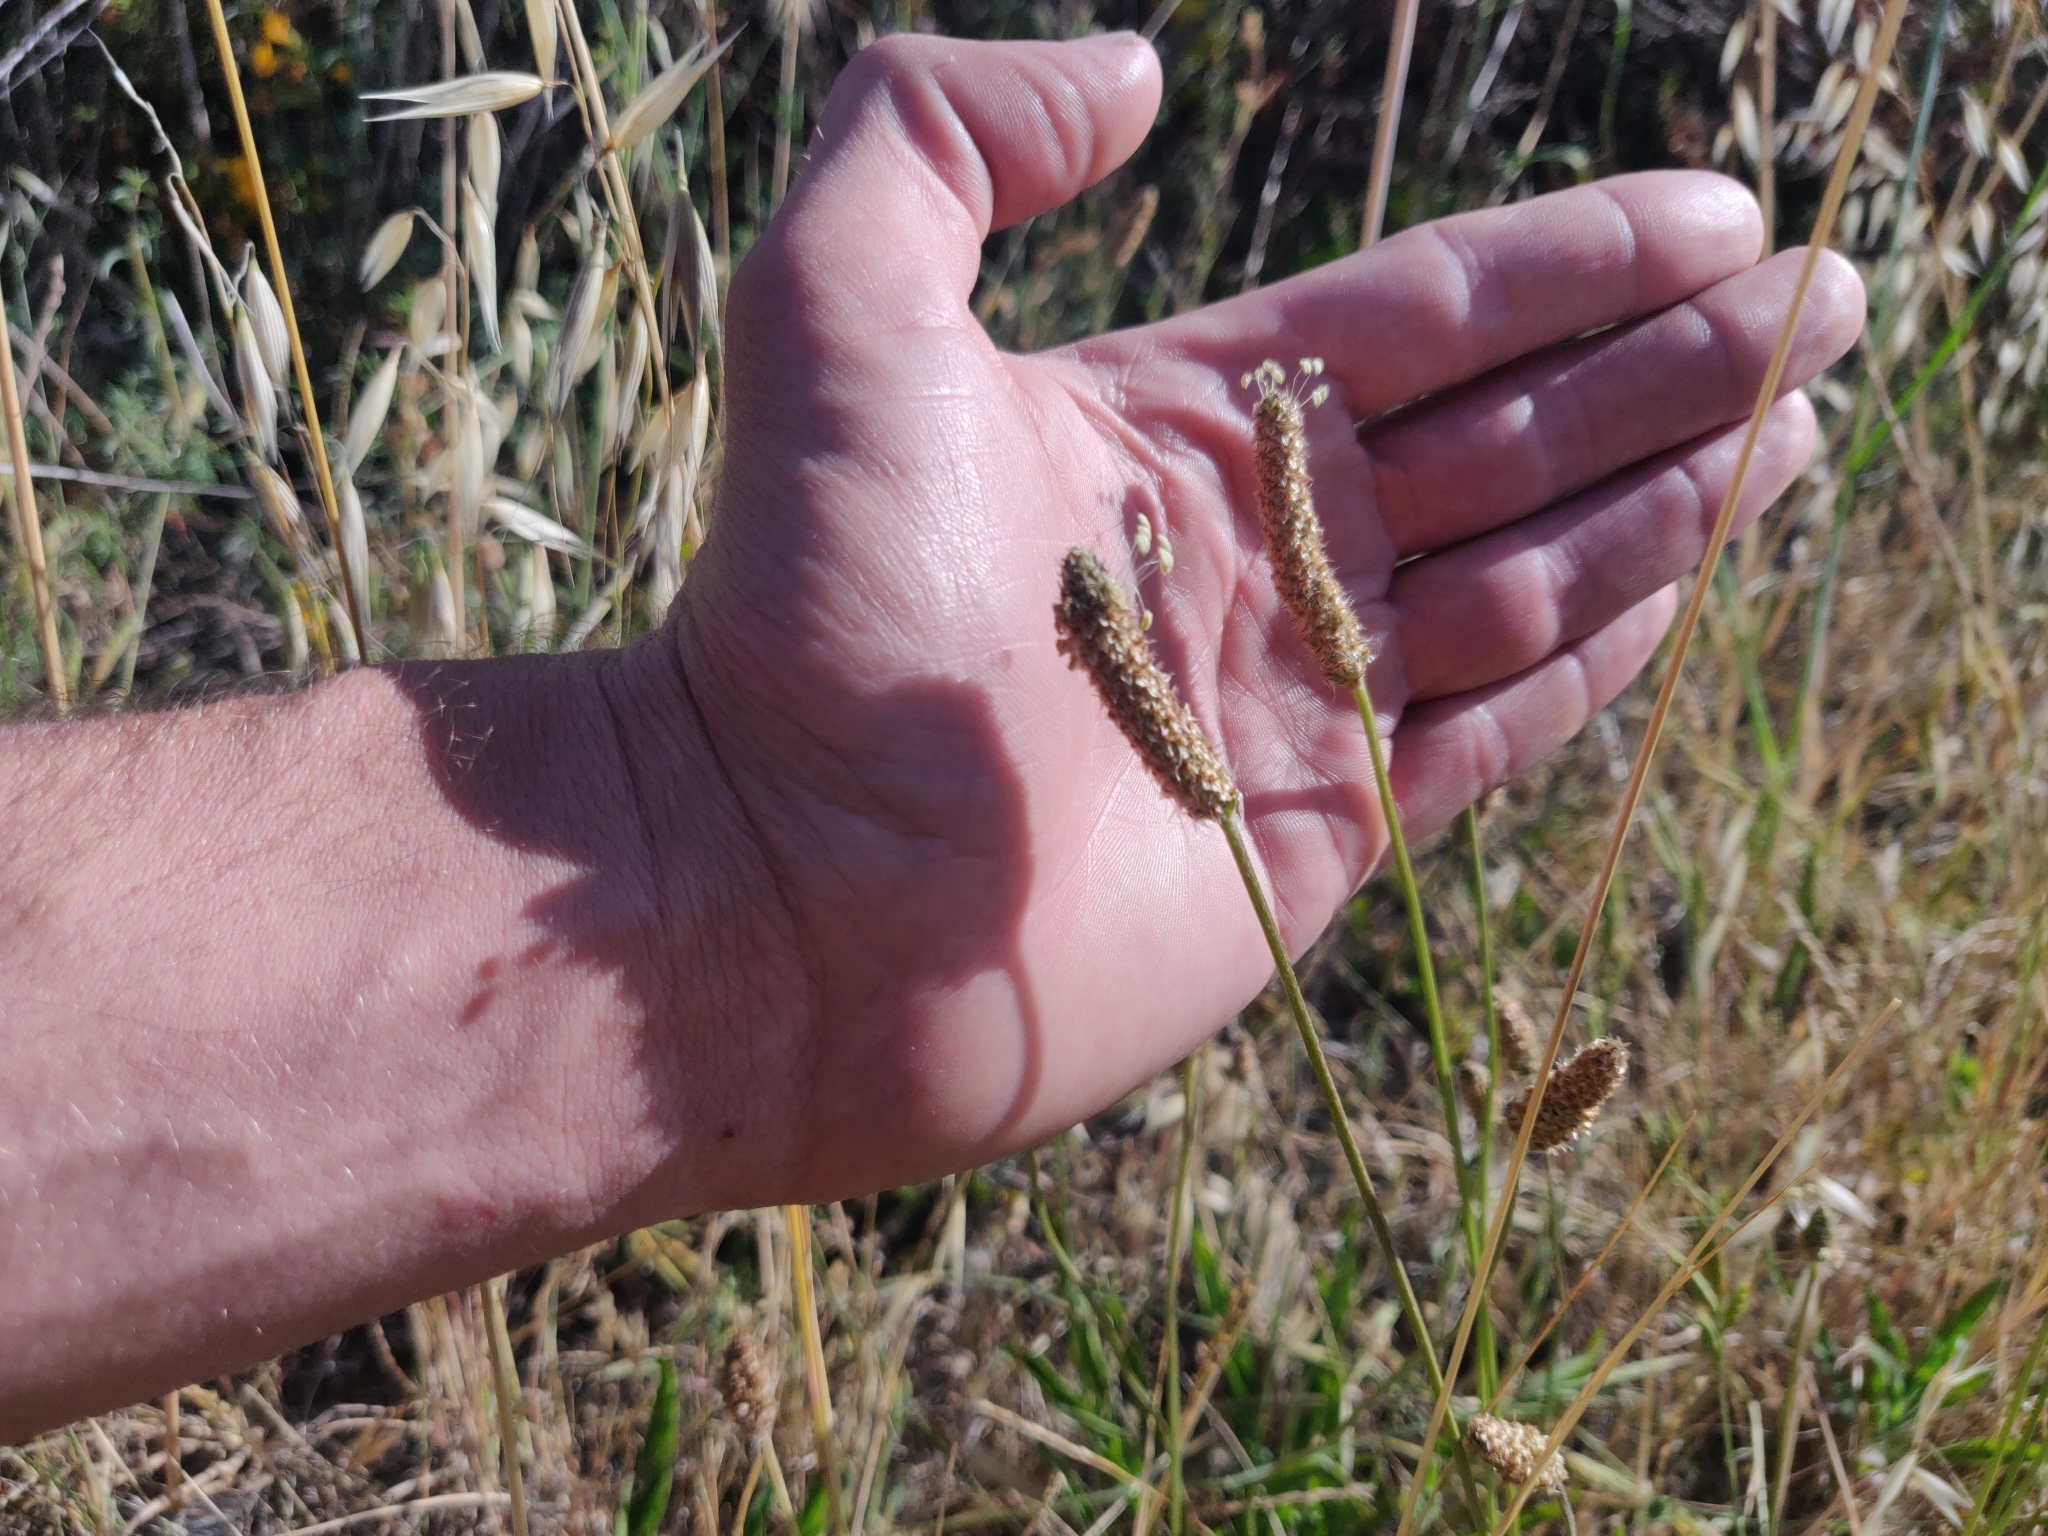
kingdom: Plantae
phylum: Tracheophyta
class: Magnoliopsida
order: Lamiales
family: Plantaginaceae
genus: Plantago
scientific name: Plantago lanceolata
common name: Ribwort plantain
